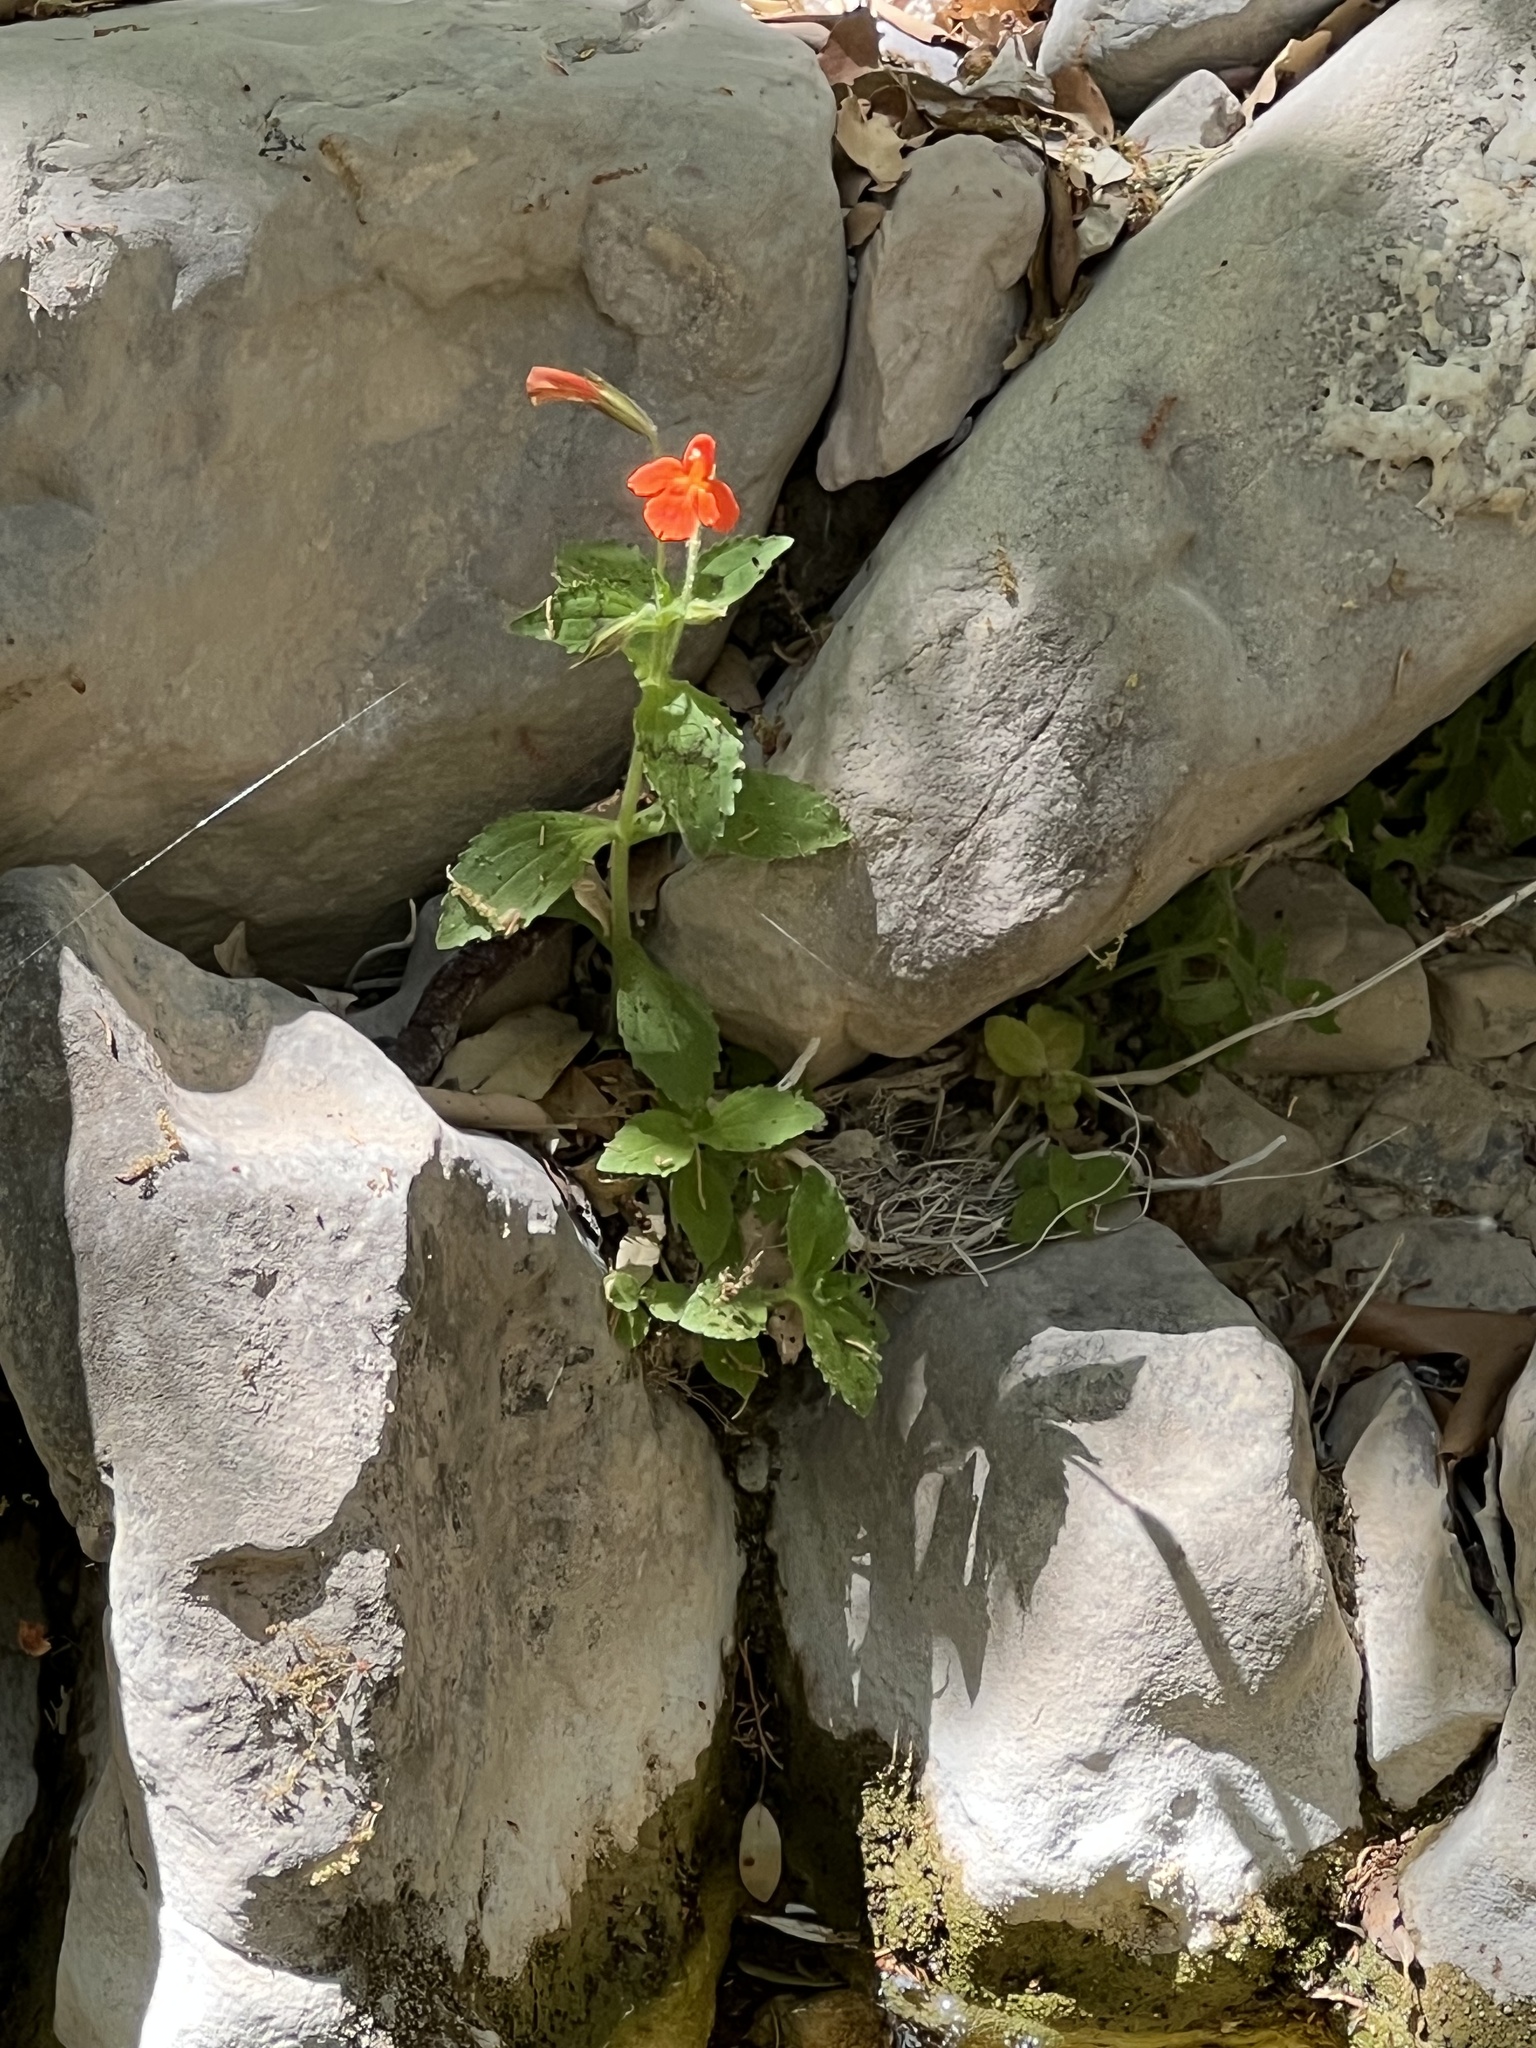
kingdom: Plantae
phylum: Tracheophyta
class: Magnoliopsida
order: Lamiales
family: Phrymaceae
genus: Erythranthe
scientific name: Erythranthe verbenacea
